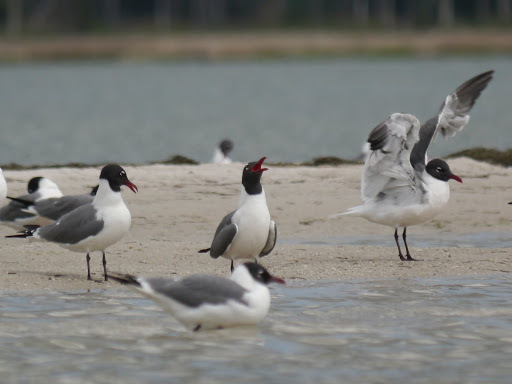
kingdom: Animalia
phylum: Chordata
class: Aves
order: Charadriiformes
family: Laridae
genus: Leucophaeus
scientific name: Leucophaeus atricilla
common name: Laughing gull
